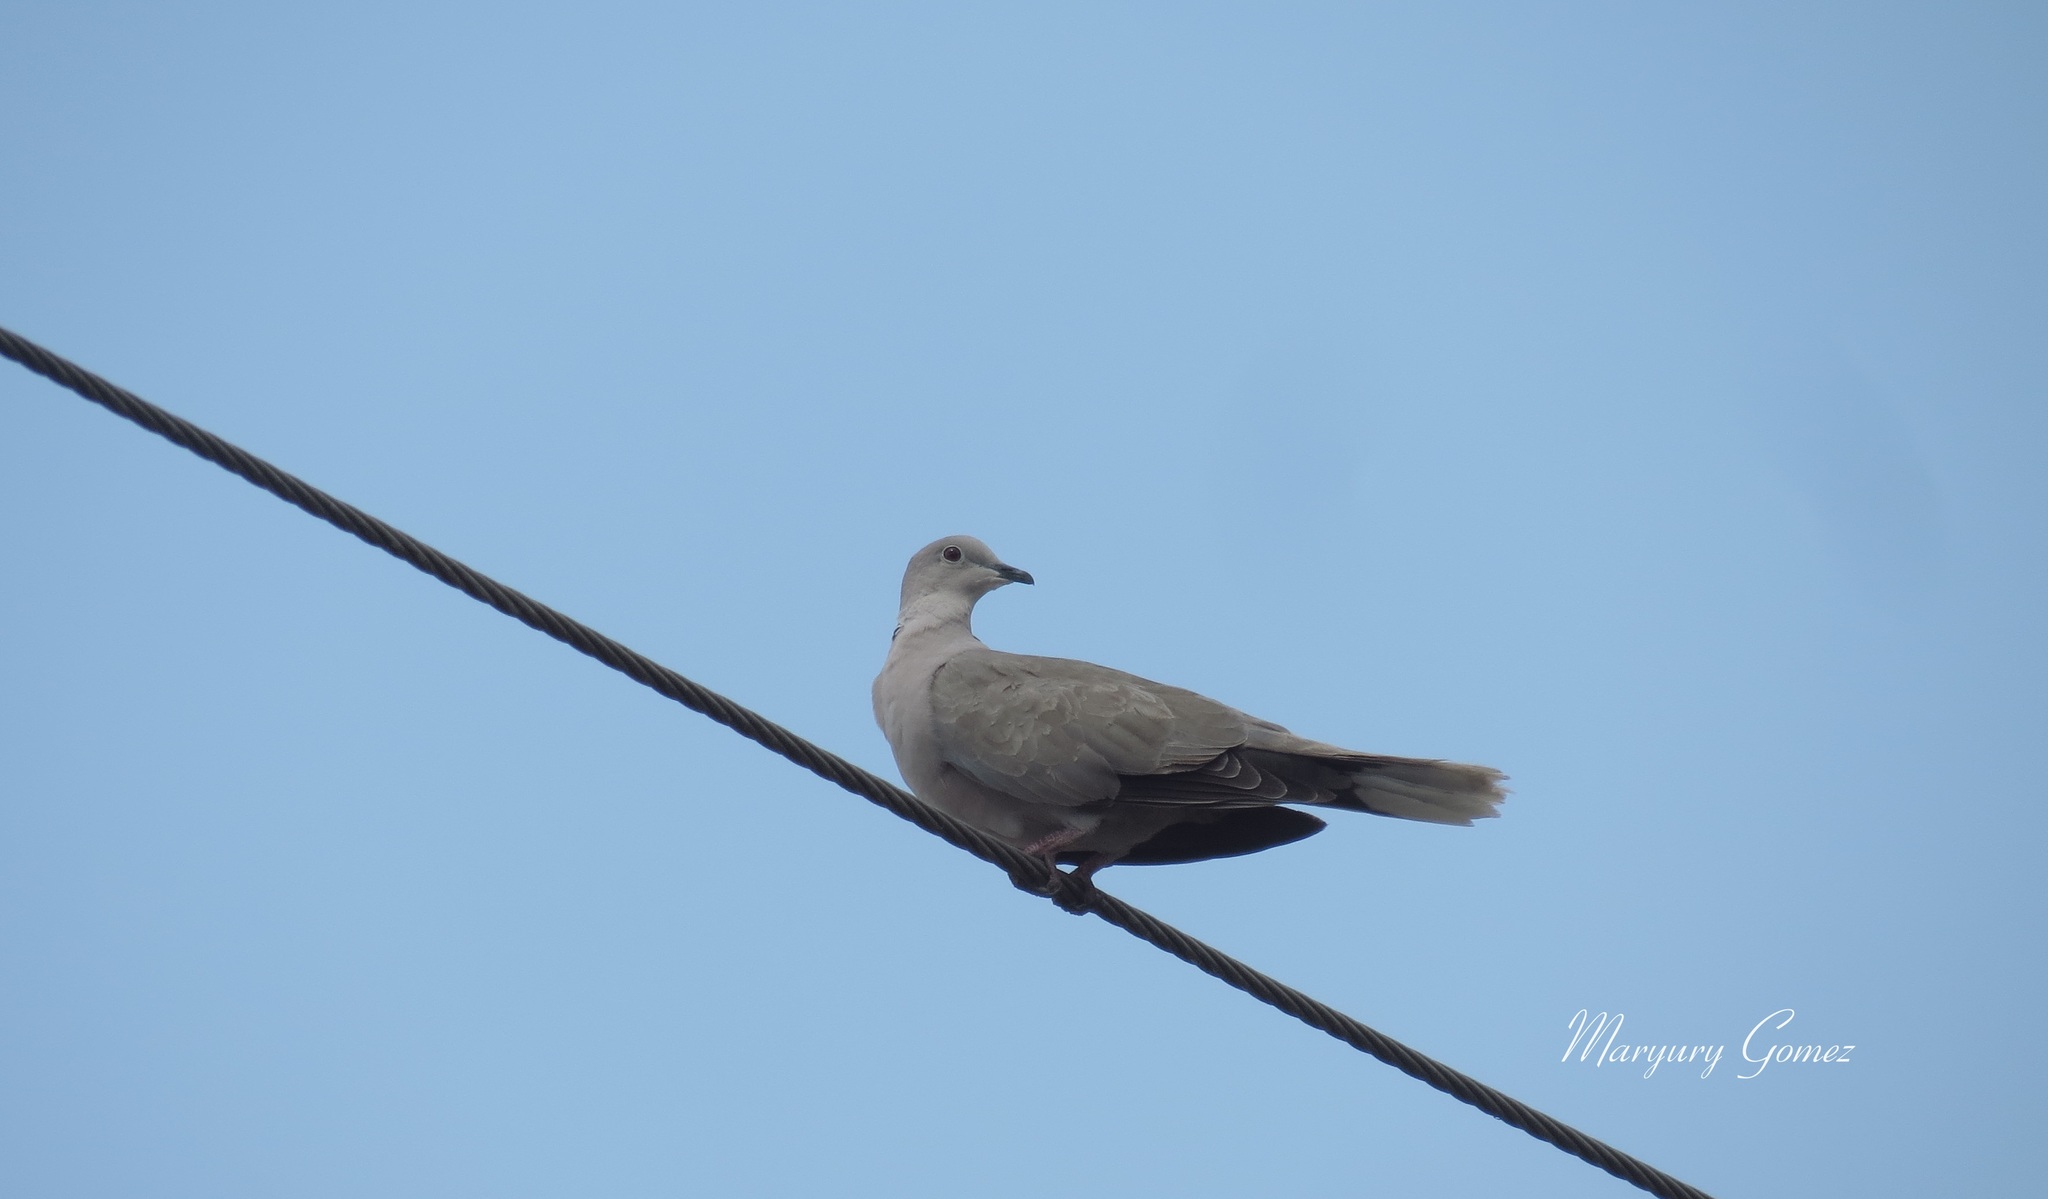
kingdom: Animalia
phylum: Chordata
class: Aves
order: Columbiformes
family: Columbidae
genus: Streptopelia
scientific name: Streptopelia decaocto
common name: Eurasian collared dove
